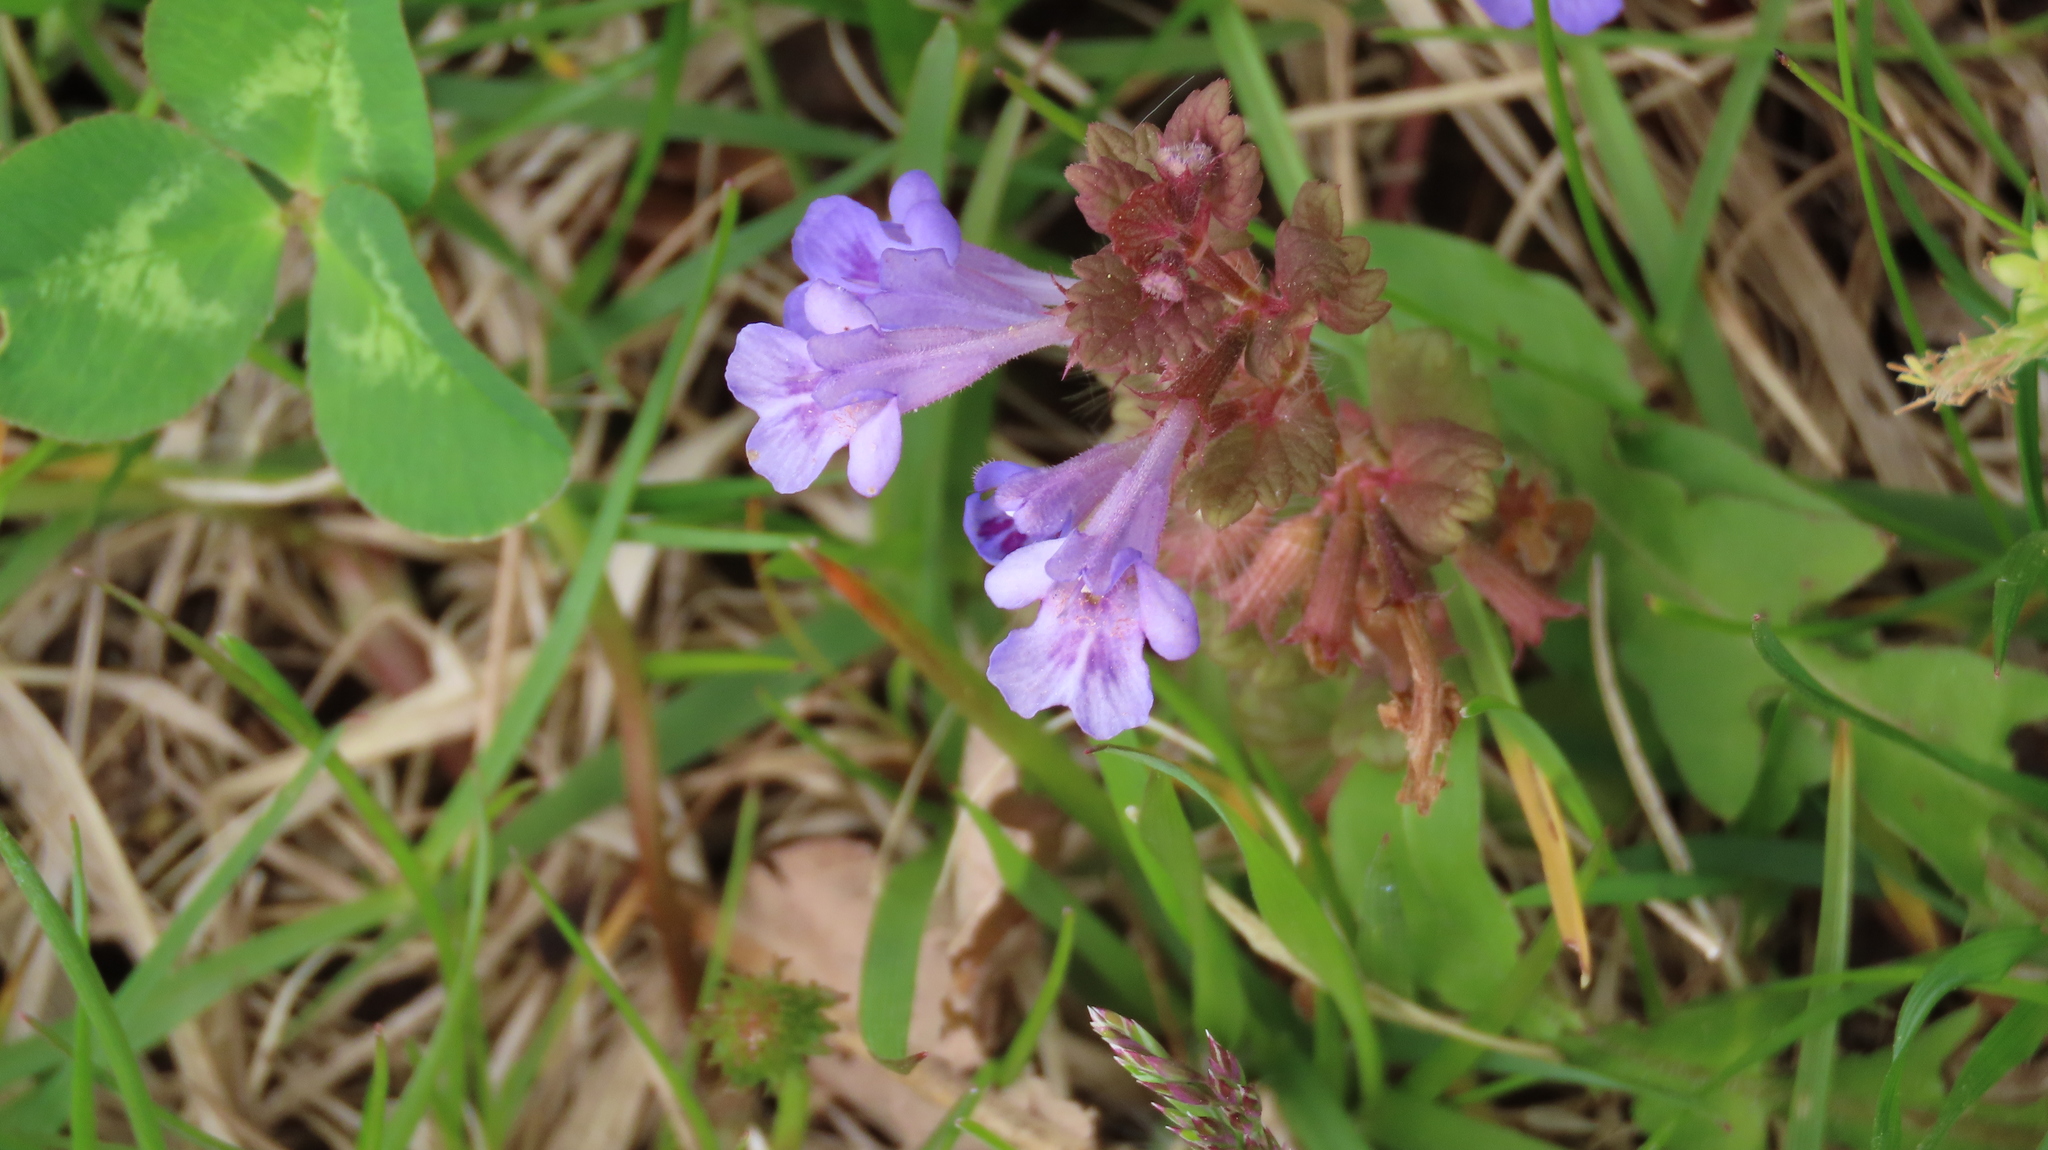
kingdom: Plantae
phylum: Tracheophyta
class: Magnoliopsida
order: Lamiales
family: Lamiaceae
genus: Glechoma
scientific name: Glechoma hederacea
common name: Ground ivy
